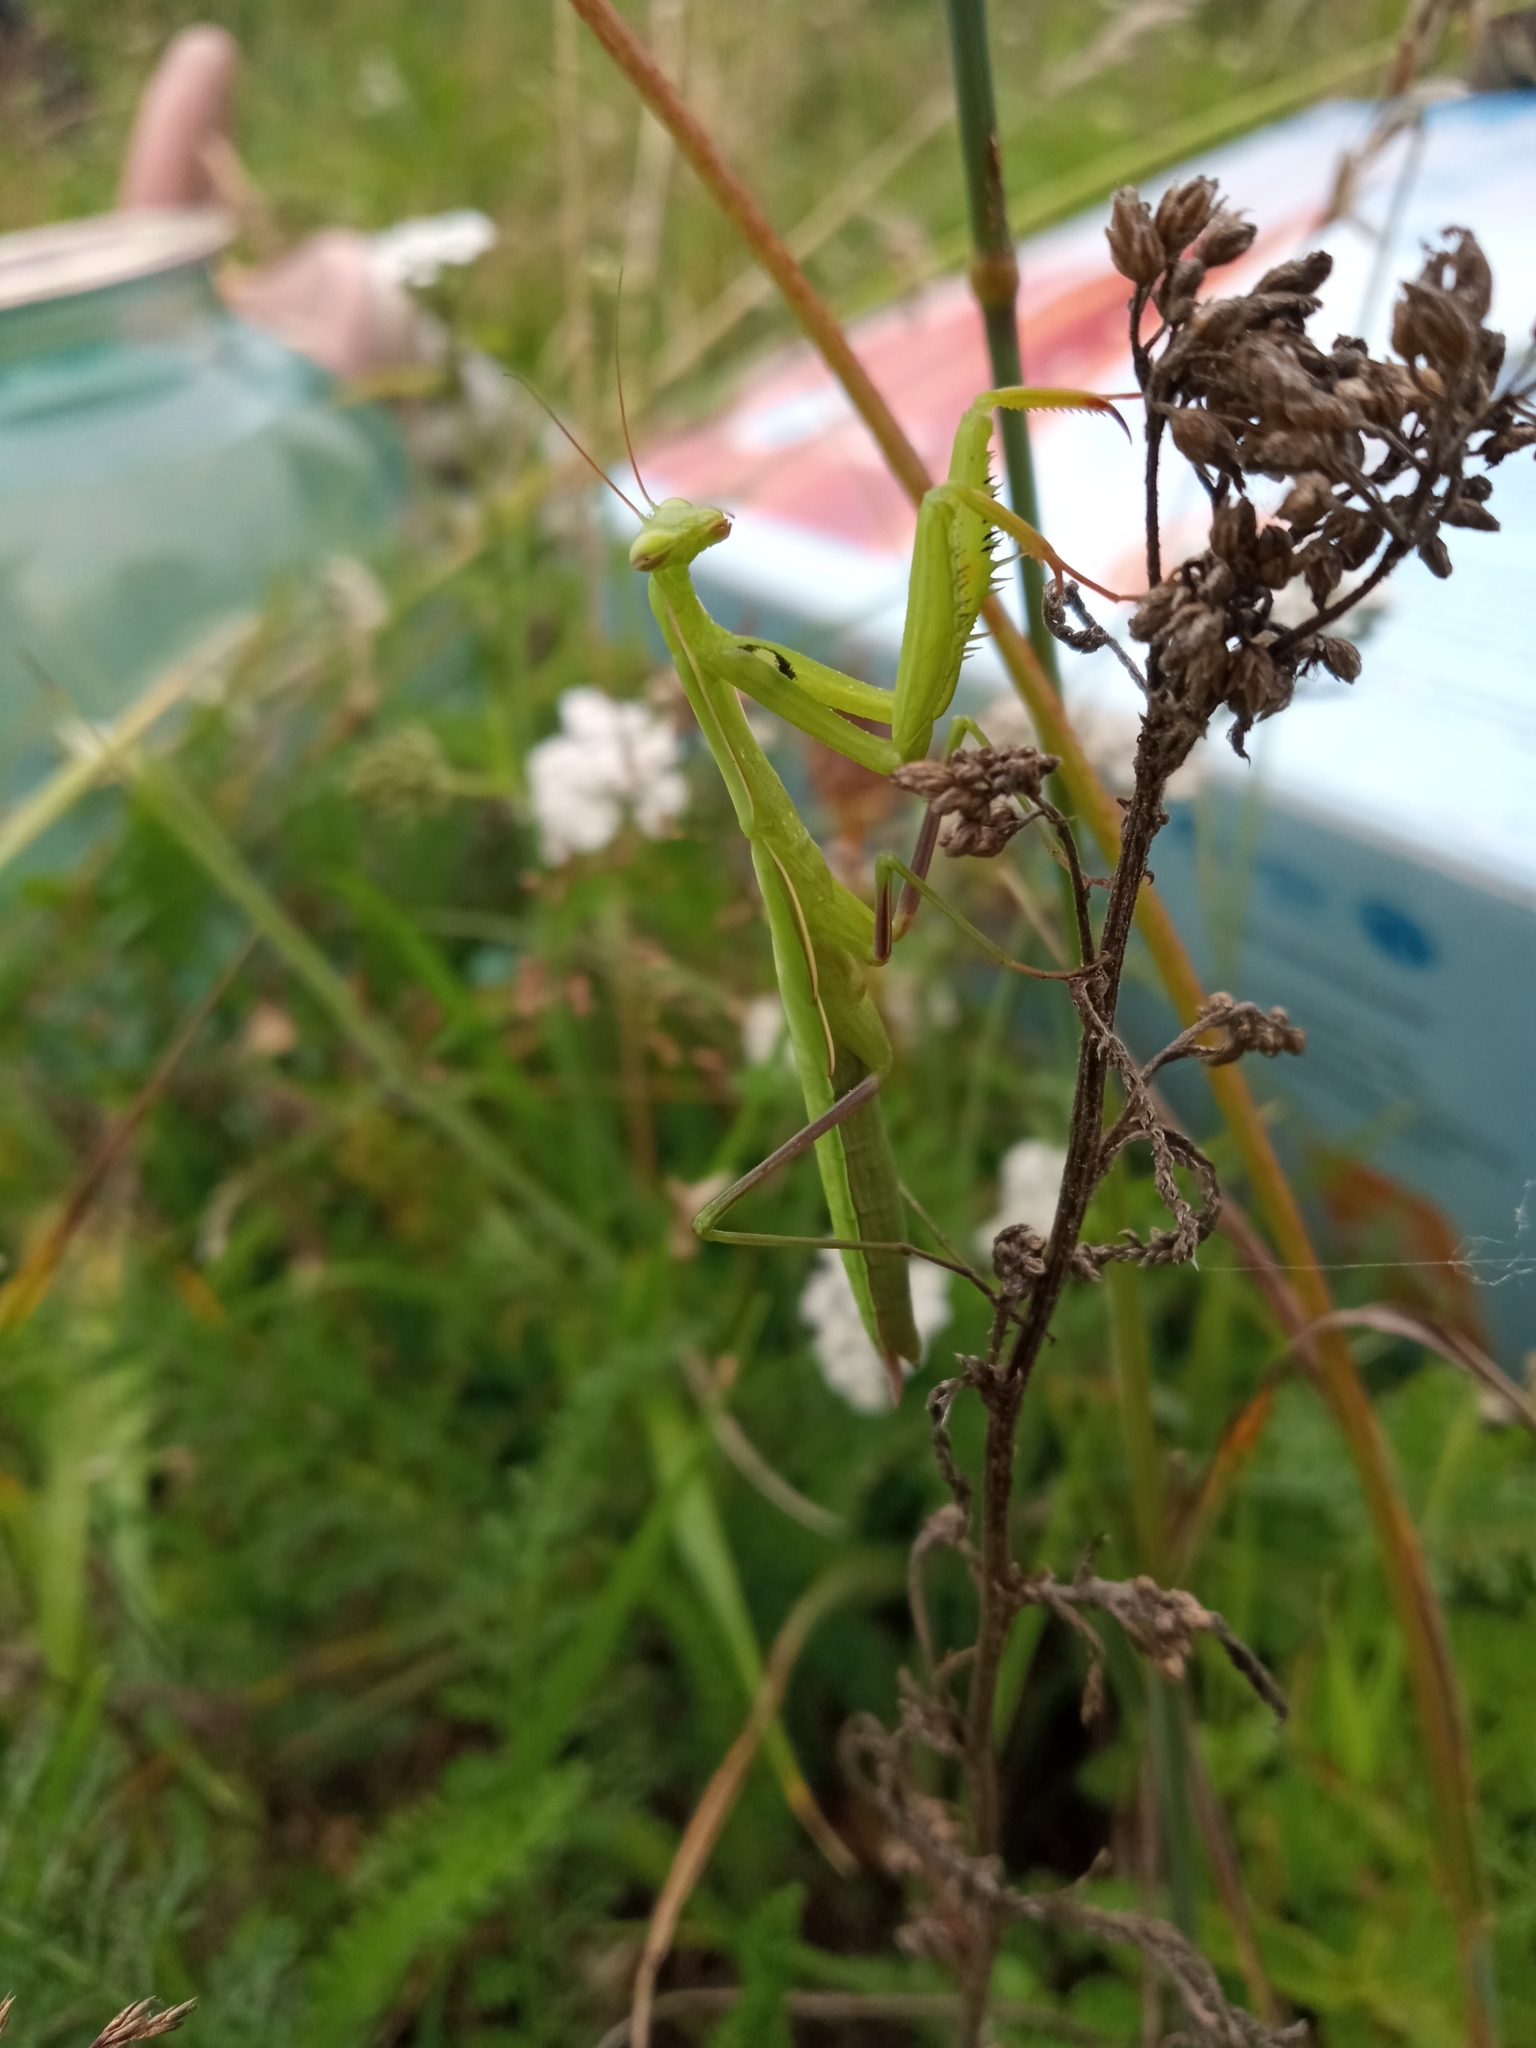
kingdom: Animalia
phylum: Arthropoda
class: Insecta
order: Mantodea
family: Mantidae
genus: Mantis
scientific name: Mantis religiosa
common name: Praying mantis
